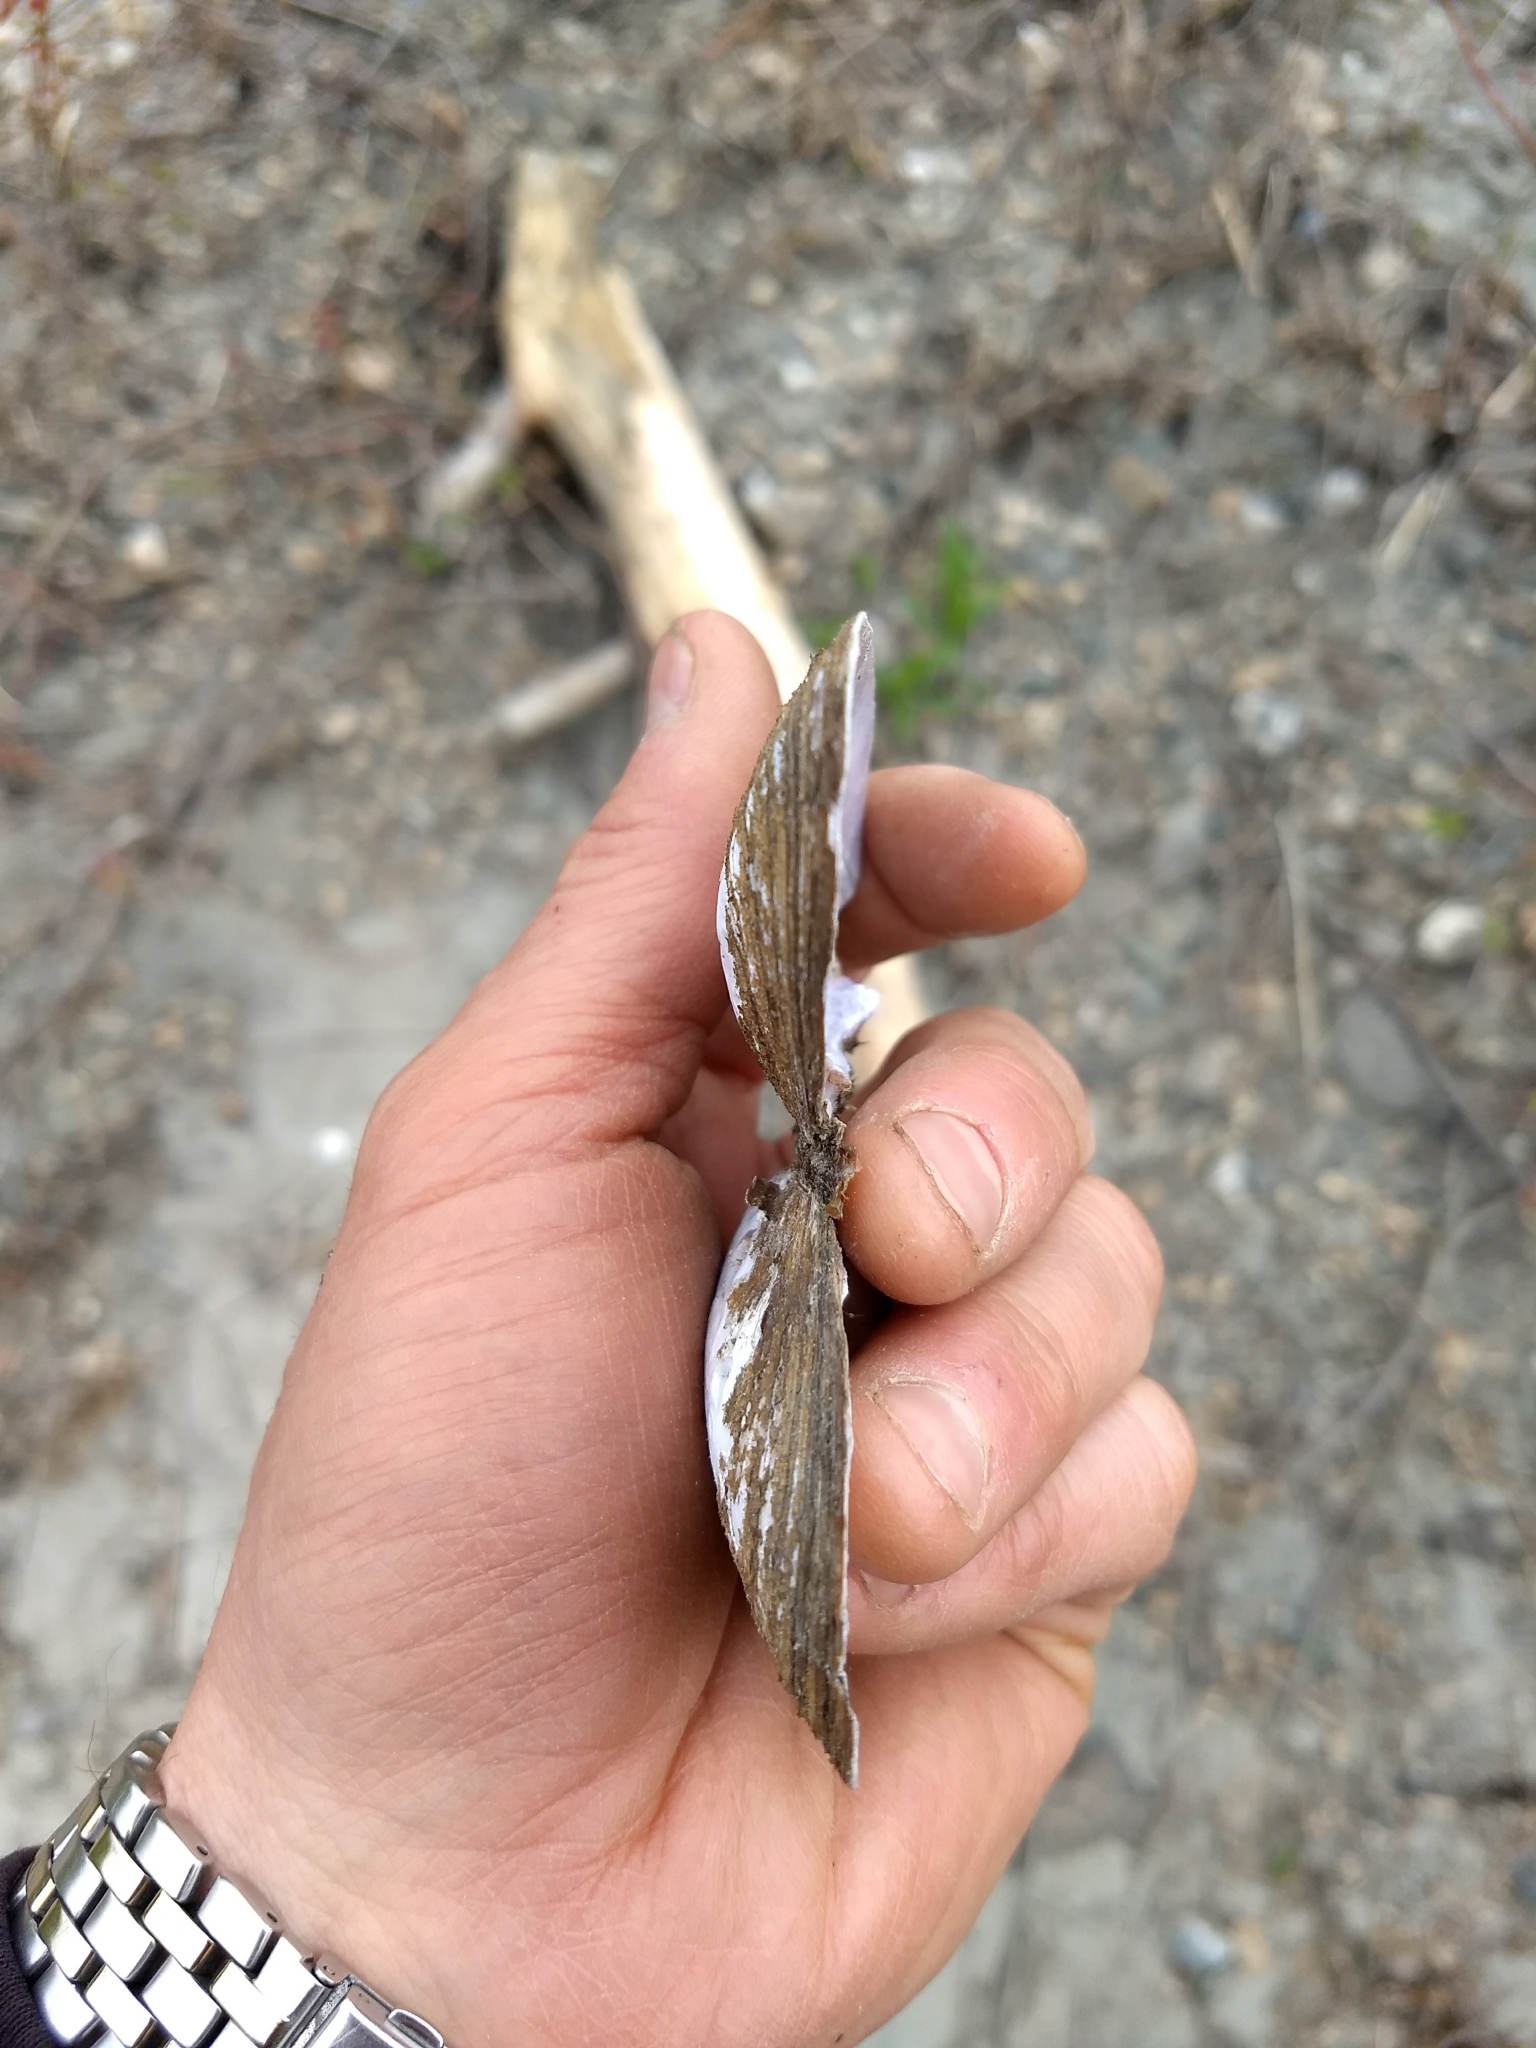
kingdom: Animalia
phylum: Mollusca
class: Bivalvia
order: Unionida
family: Unionidae
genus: Elliptio
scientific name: Elliptio complanata
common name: Eastern elliptio
